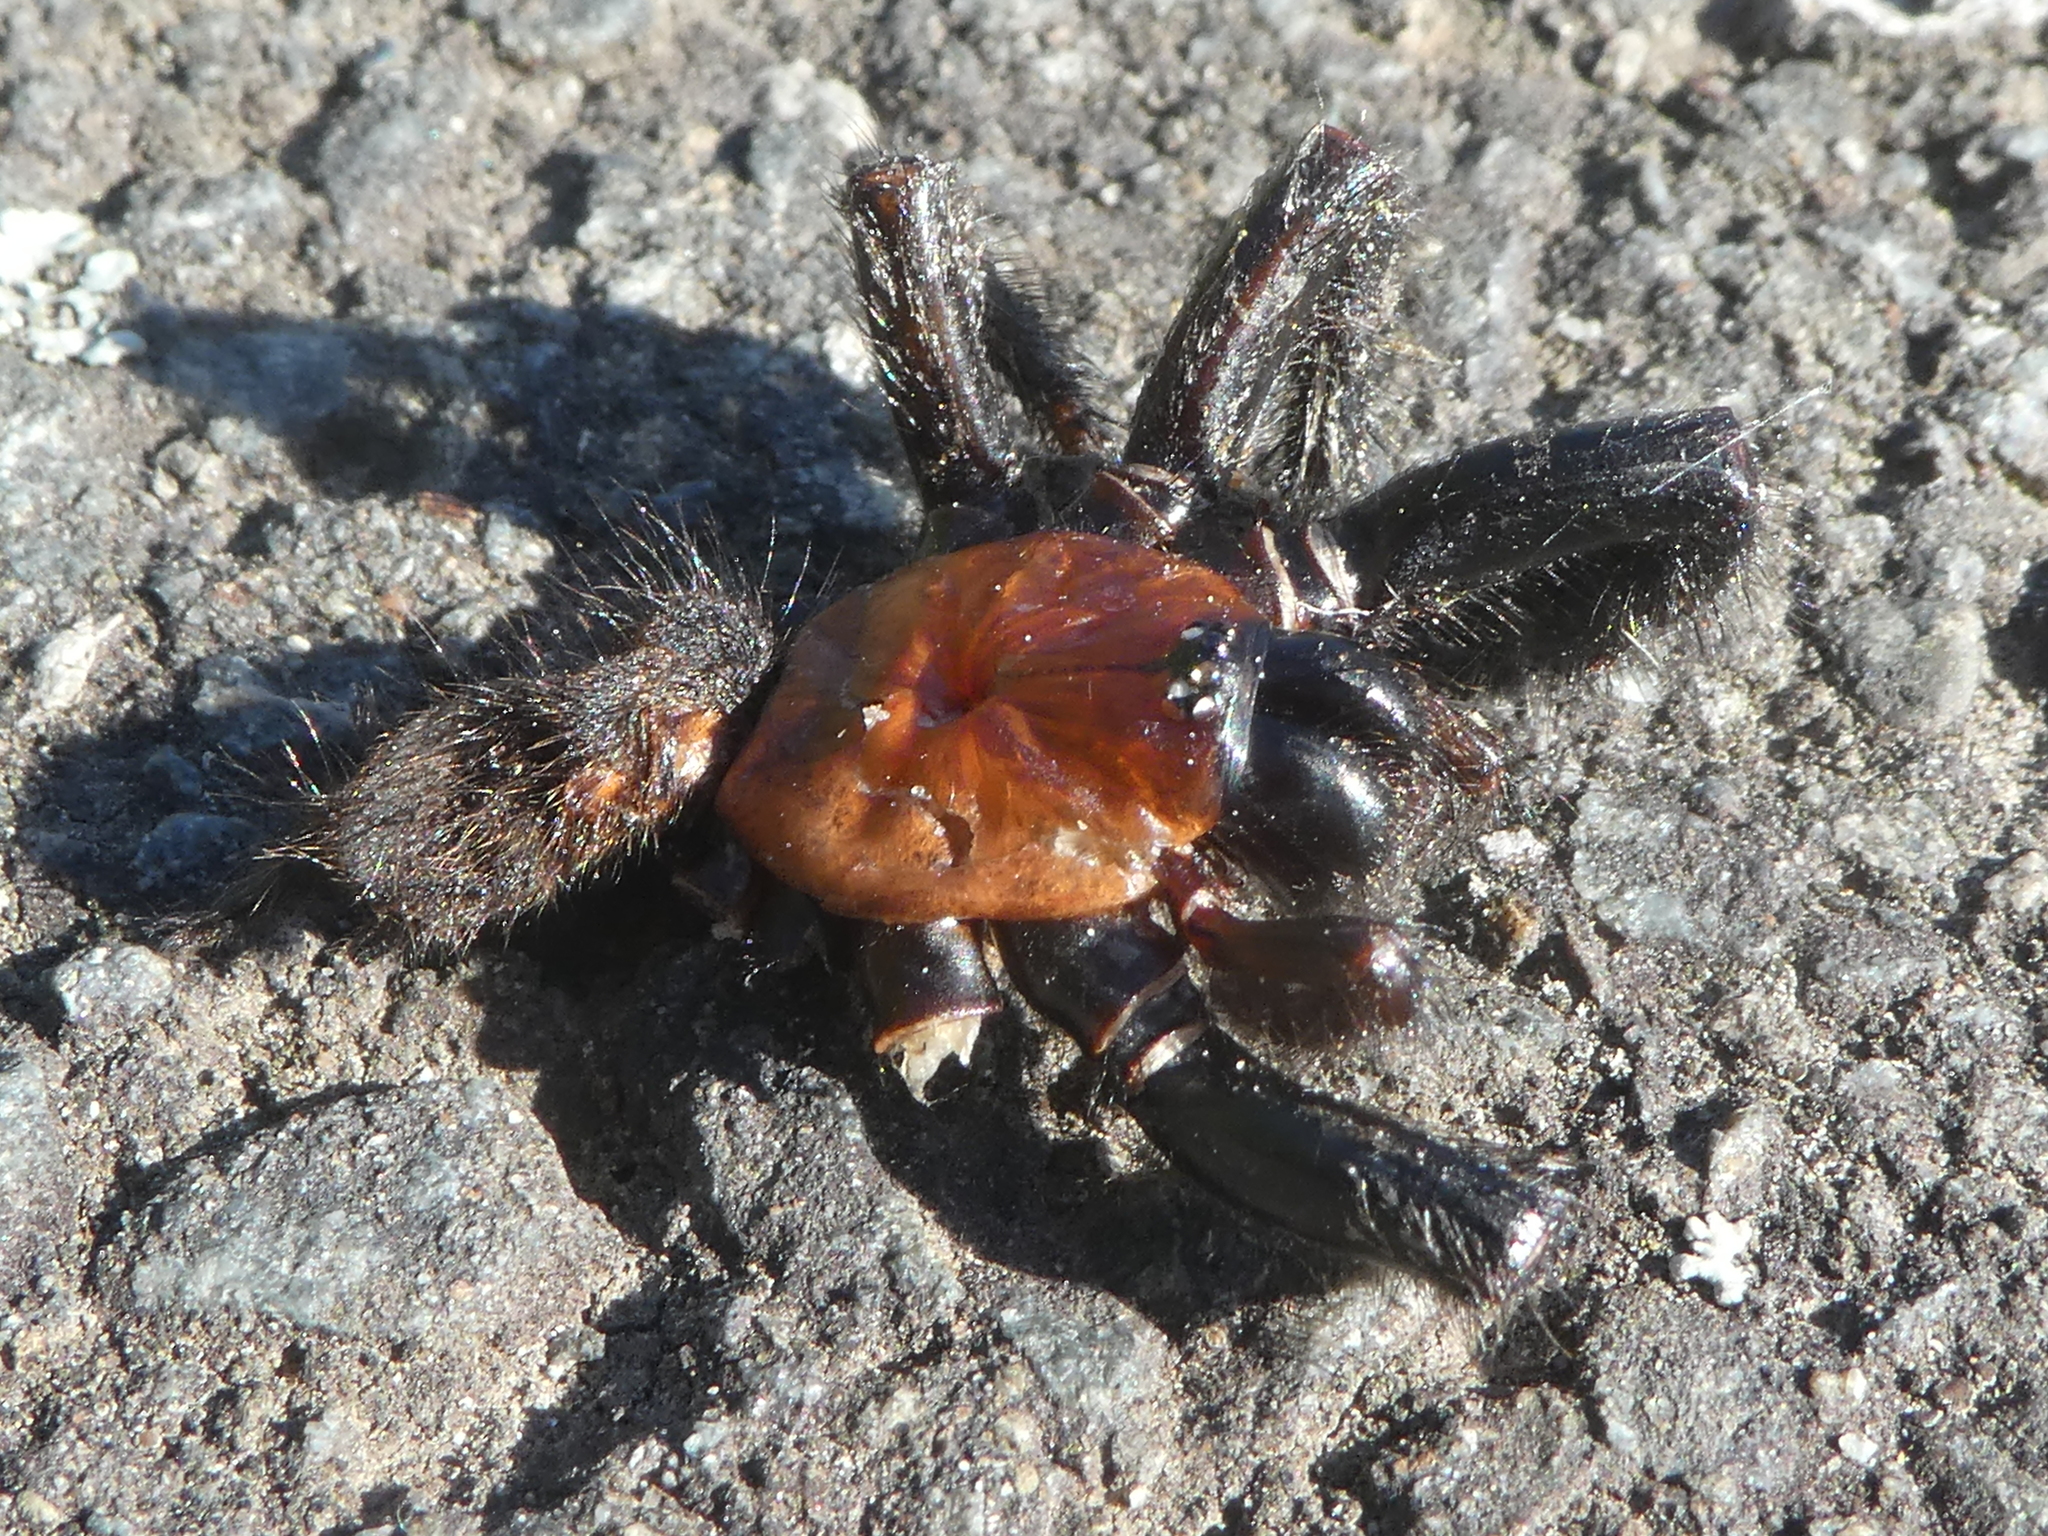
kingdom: Animalia
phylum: Arthropoda
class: Arachnida
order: Araneae
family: Porrhothelidae
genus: Porrhothele
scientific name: Porrhothele antipodiana
